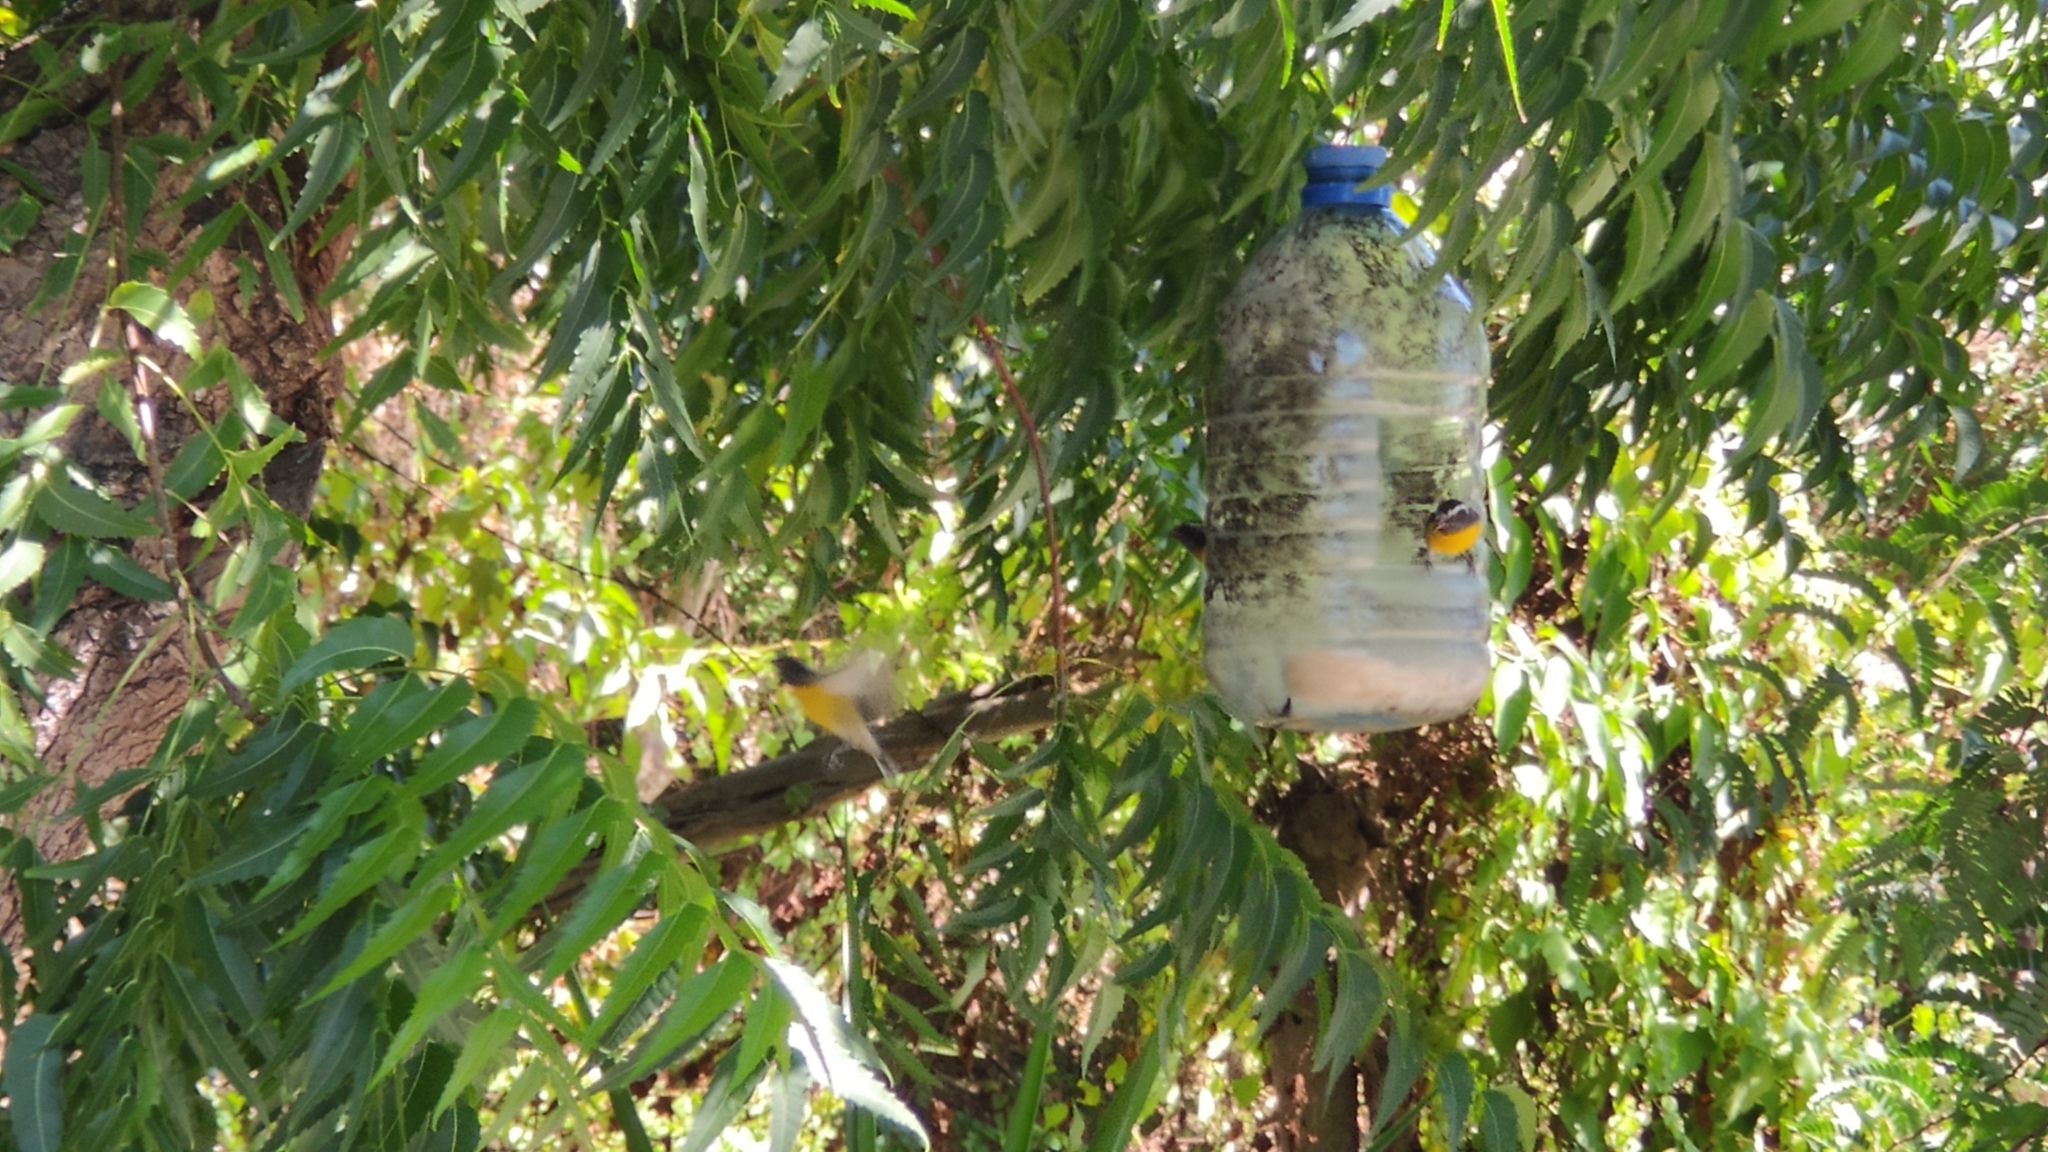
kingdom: Animalia
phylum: Chordata
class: Aves
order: Passeriformes
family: Thraupidae
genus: Coereba
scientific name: Coereba flaveola
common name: Bananaquit
